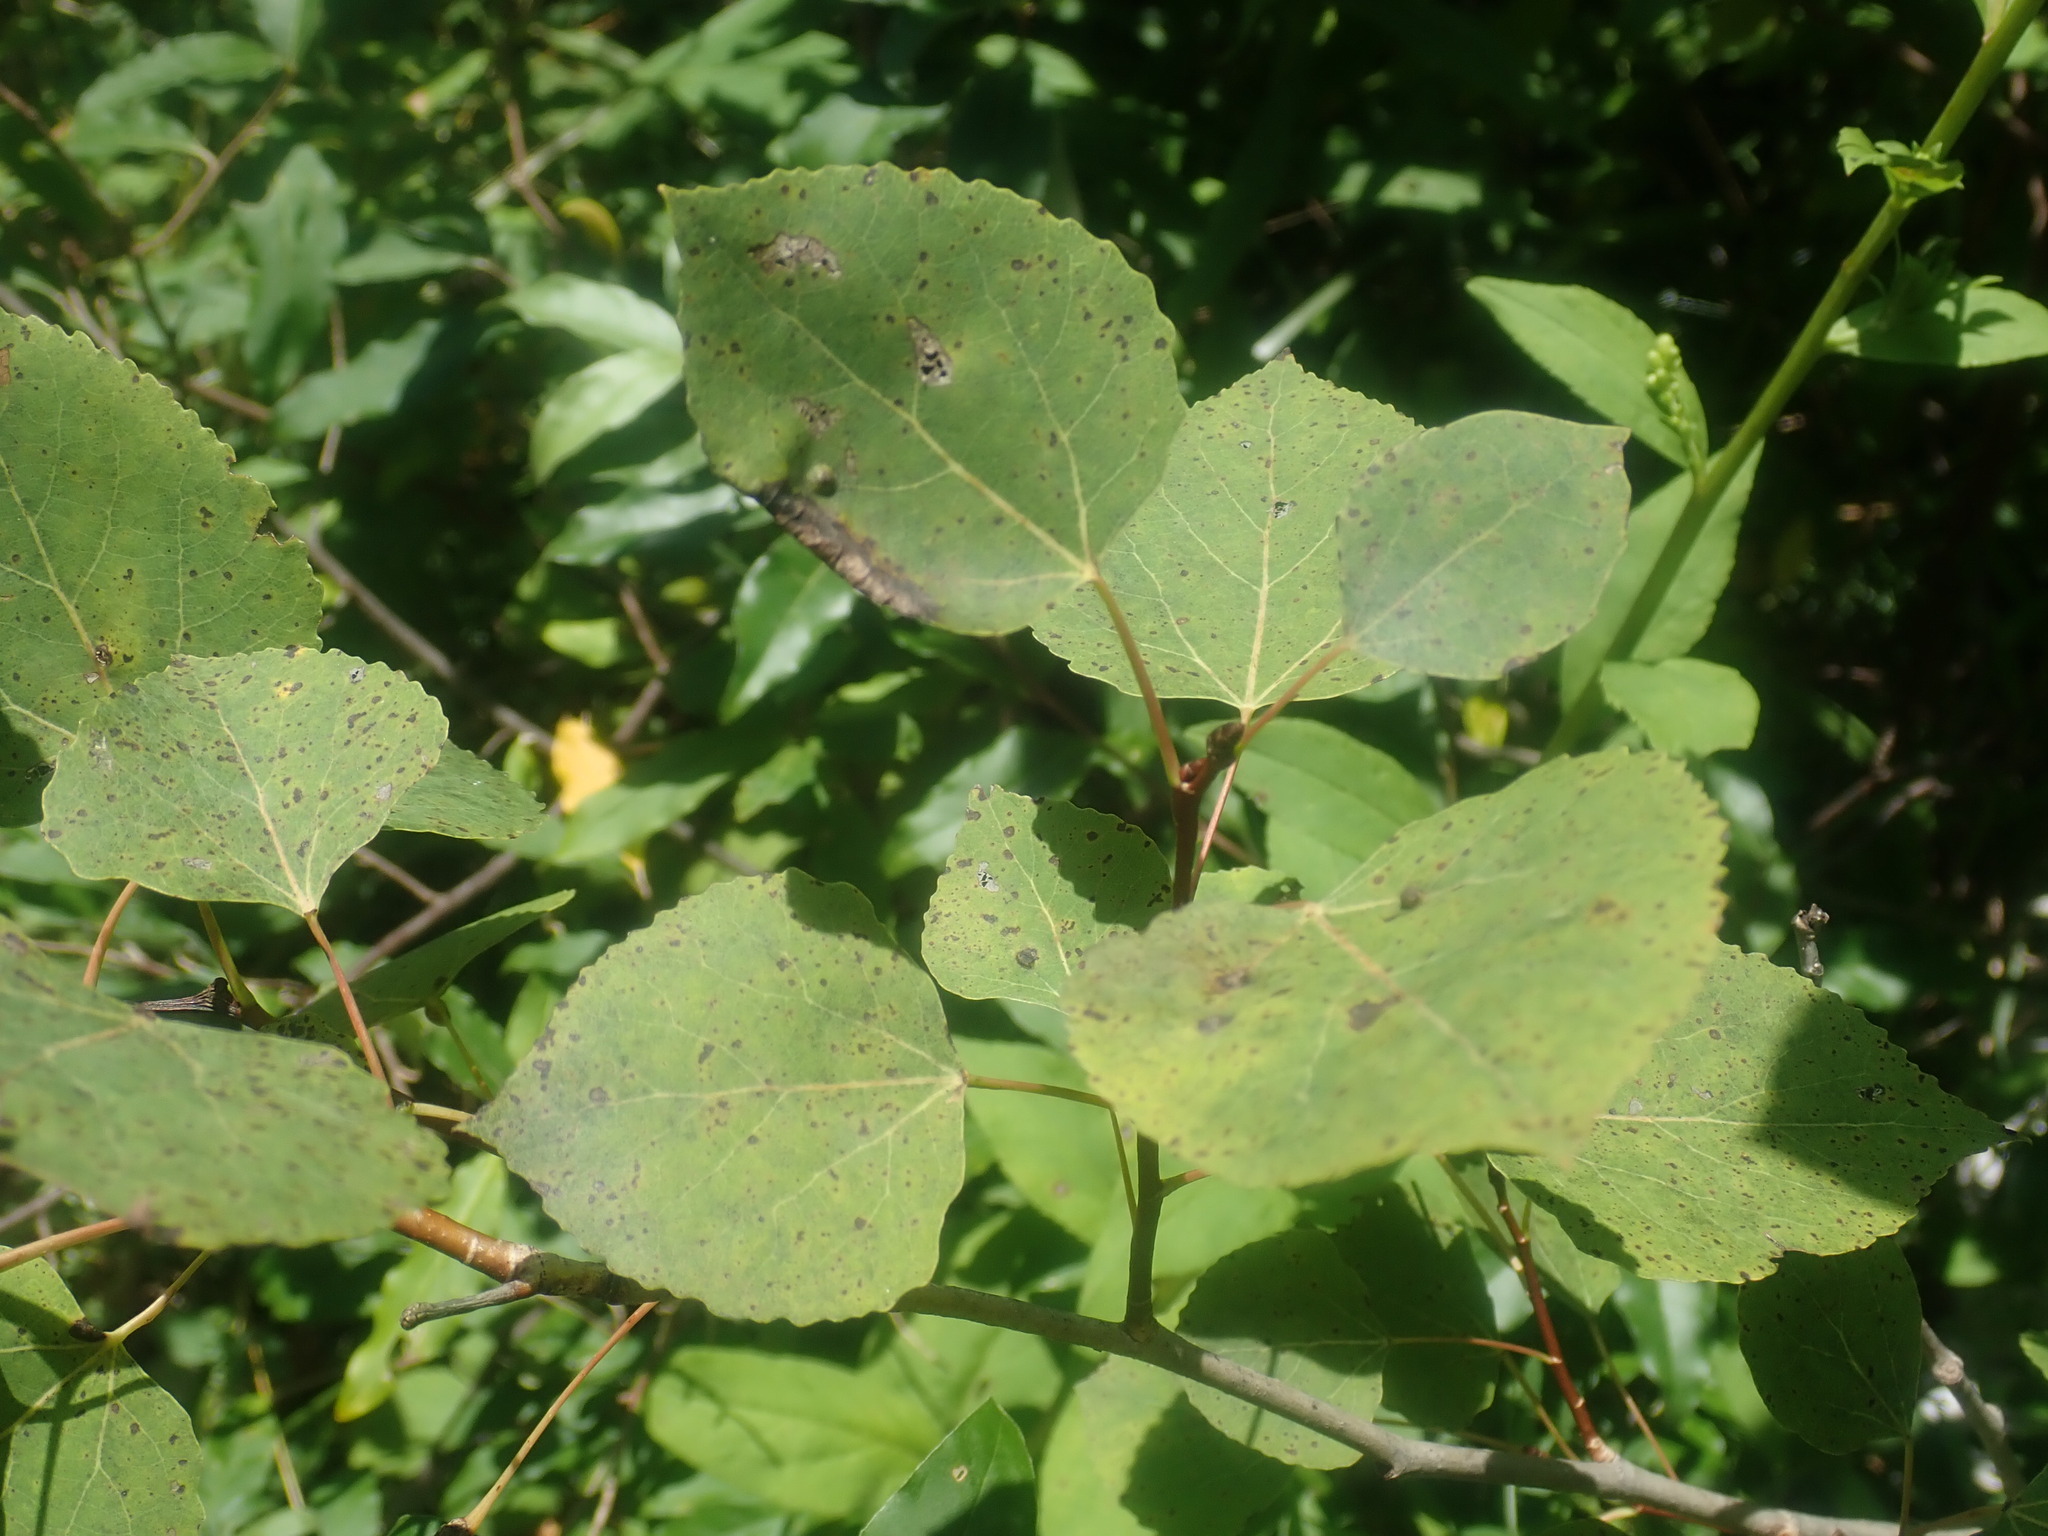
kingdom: Plantae
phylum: Tracheophyta
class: Magnoliopsida
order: Malpighiales
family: Salicaceae
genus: Populus
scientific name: Populus tremuloides
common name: Quaking aspen
